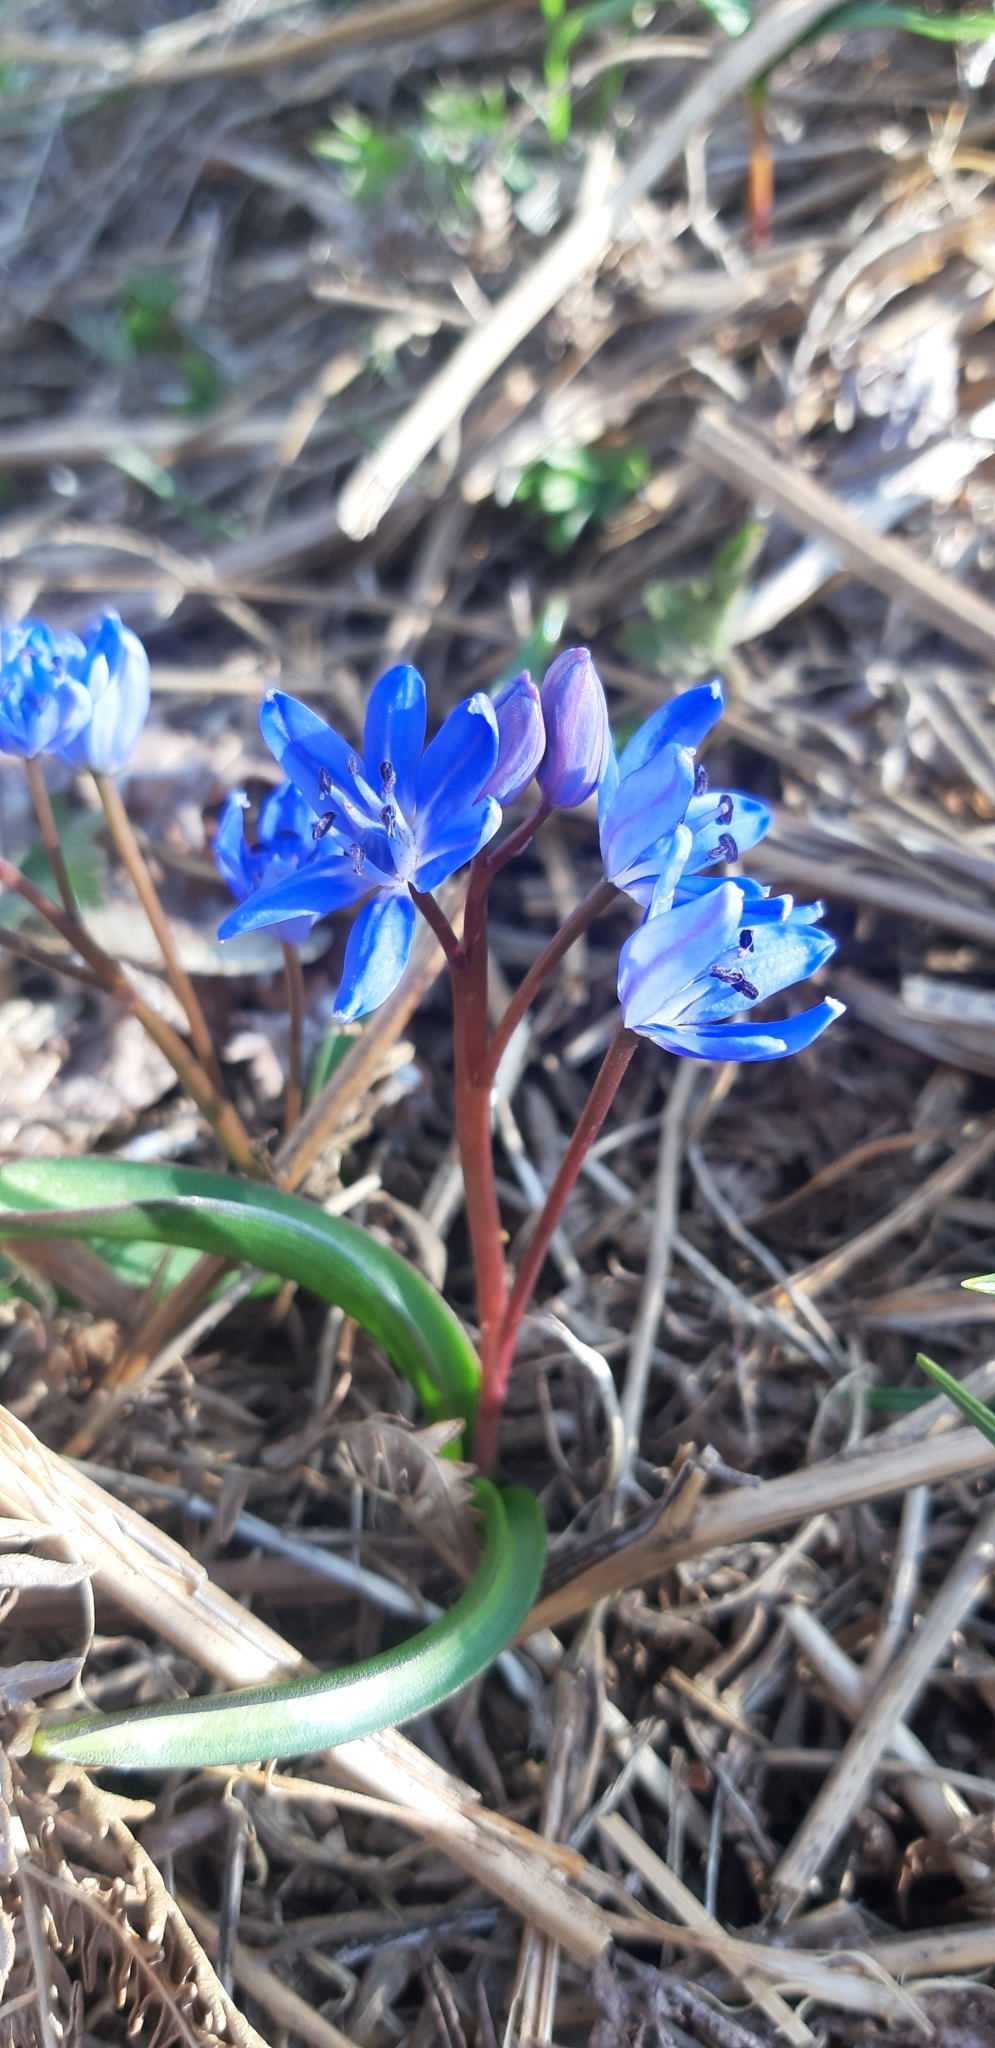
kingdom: Plantae
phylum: Tracheophyta
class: Liliopsida
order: Asparagales
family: Asparagaceae
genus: Scilla
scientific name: Scilla bifolia
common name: Alpine squill
